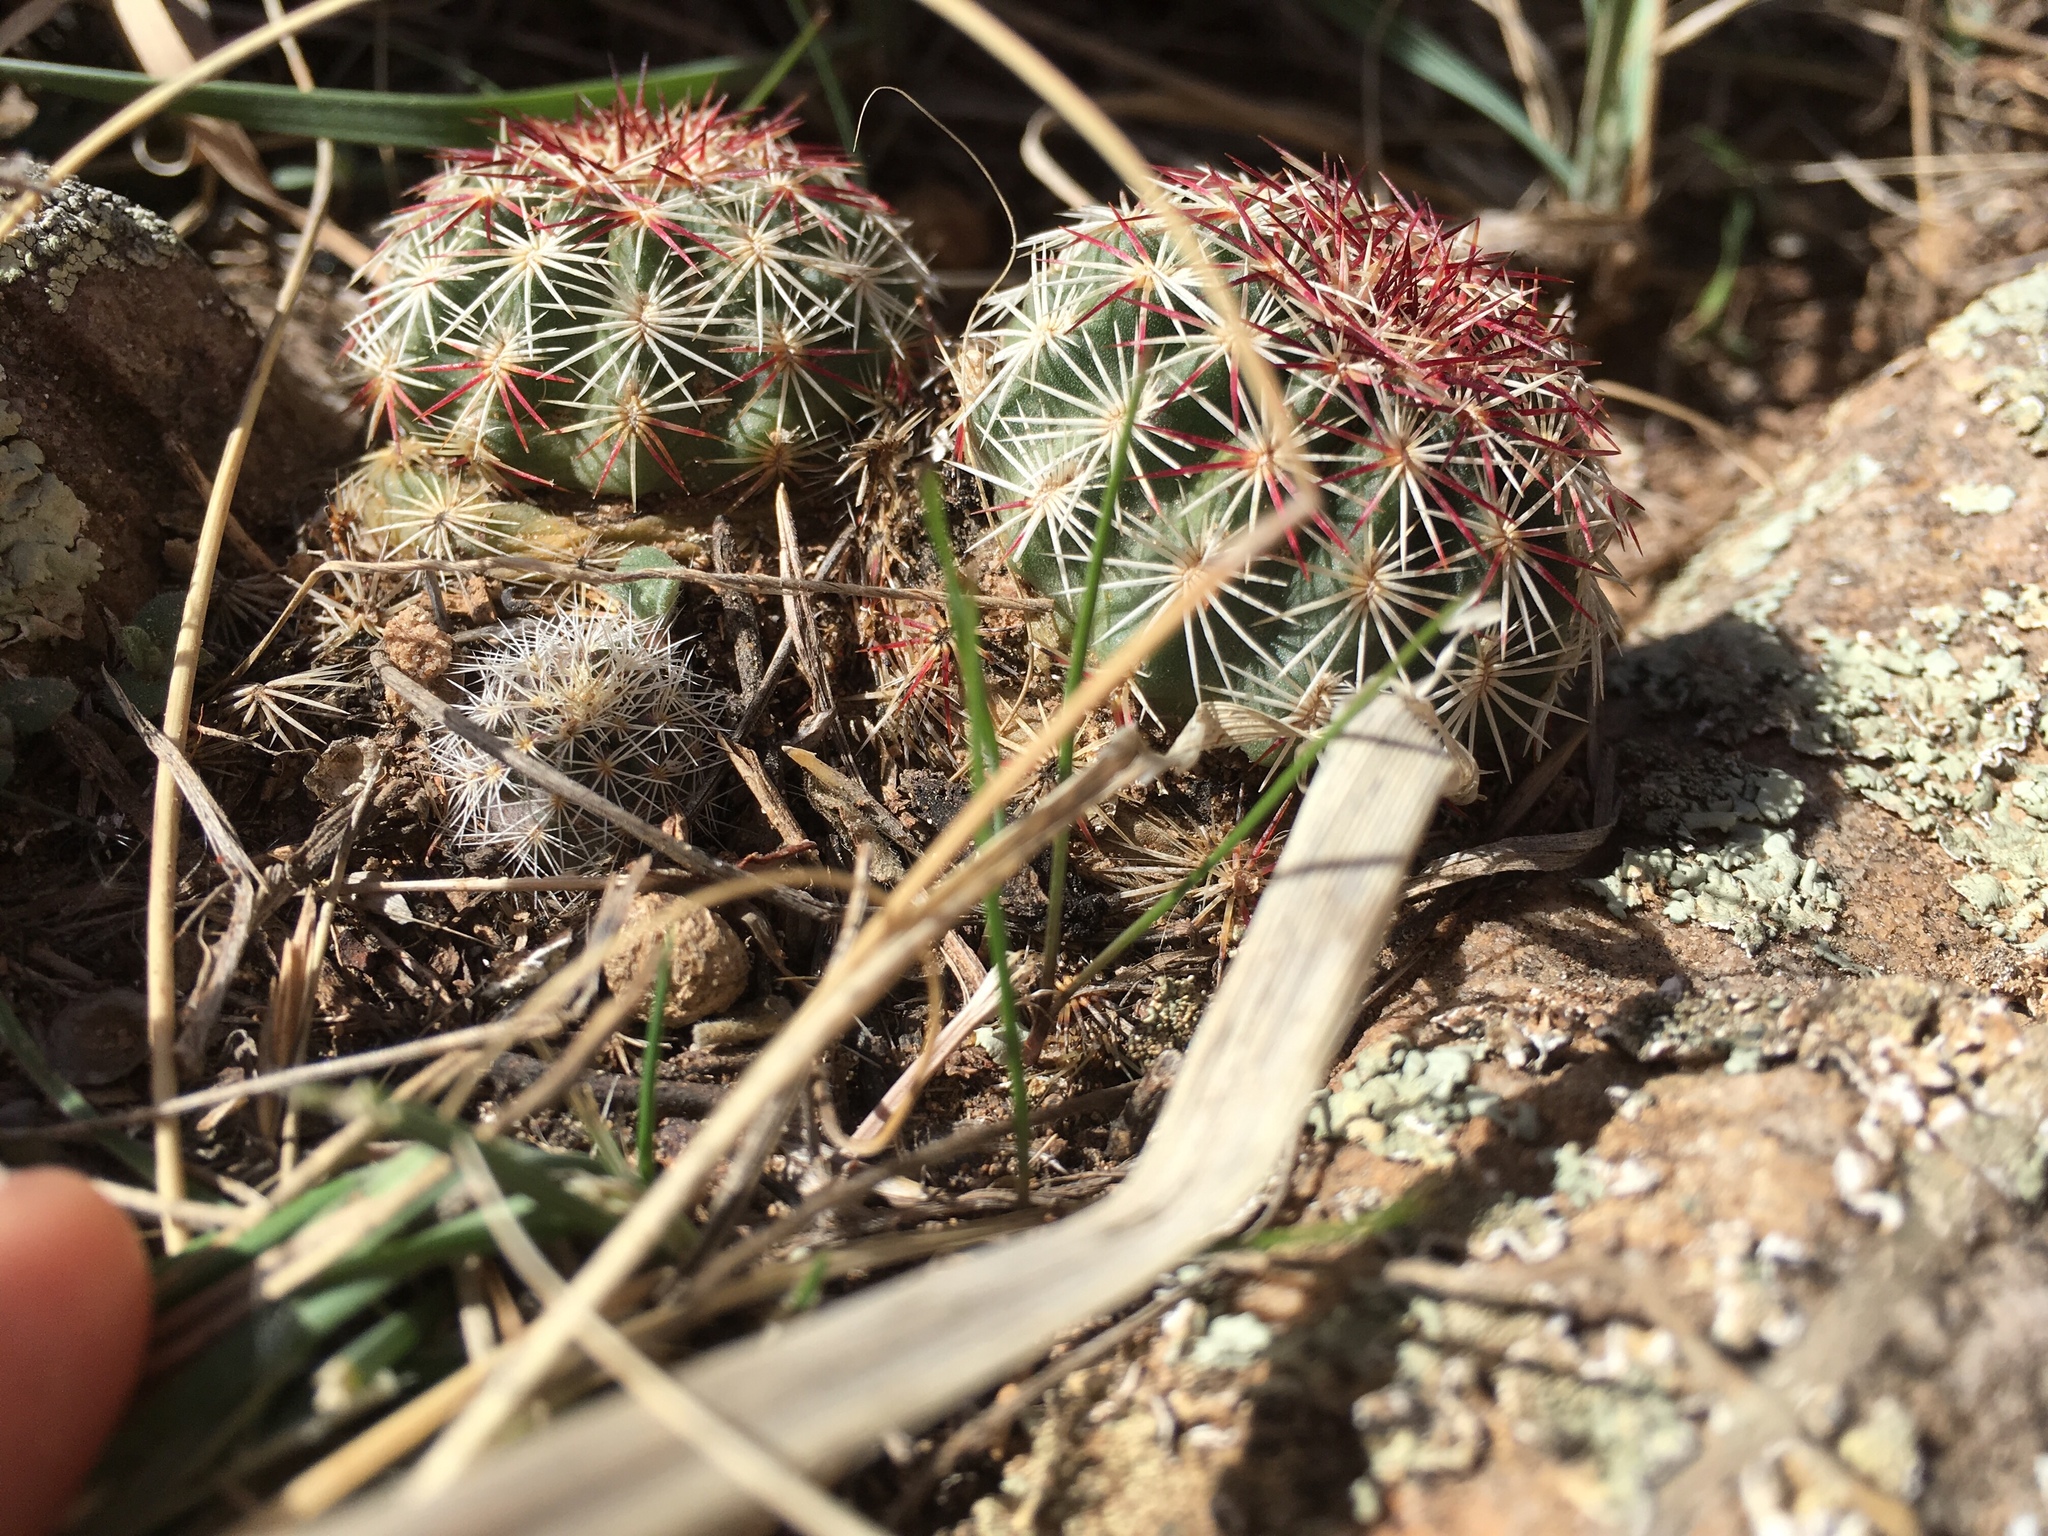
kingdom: Plantae
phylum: Tracheophyta
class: Magnoliopsida
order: Caryophyllales
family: Cactaceae
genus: Echinocereus
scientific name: Echinocereus viridiflorus
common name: Nylon hedgehog cactus
